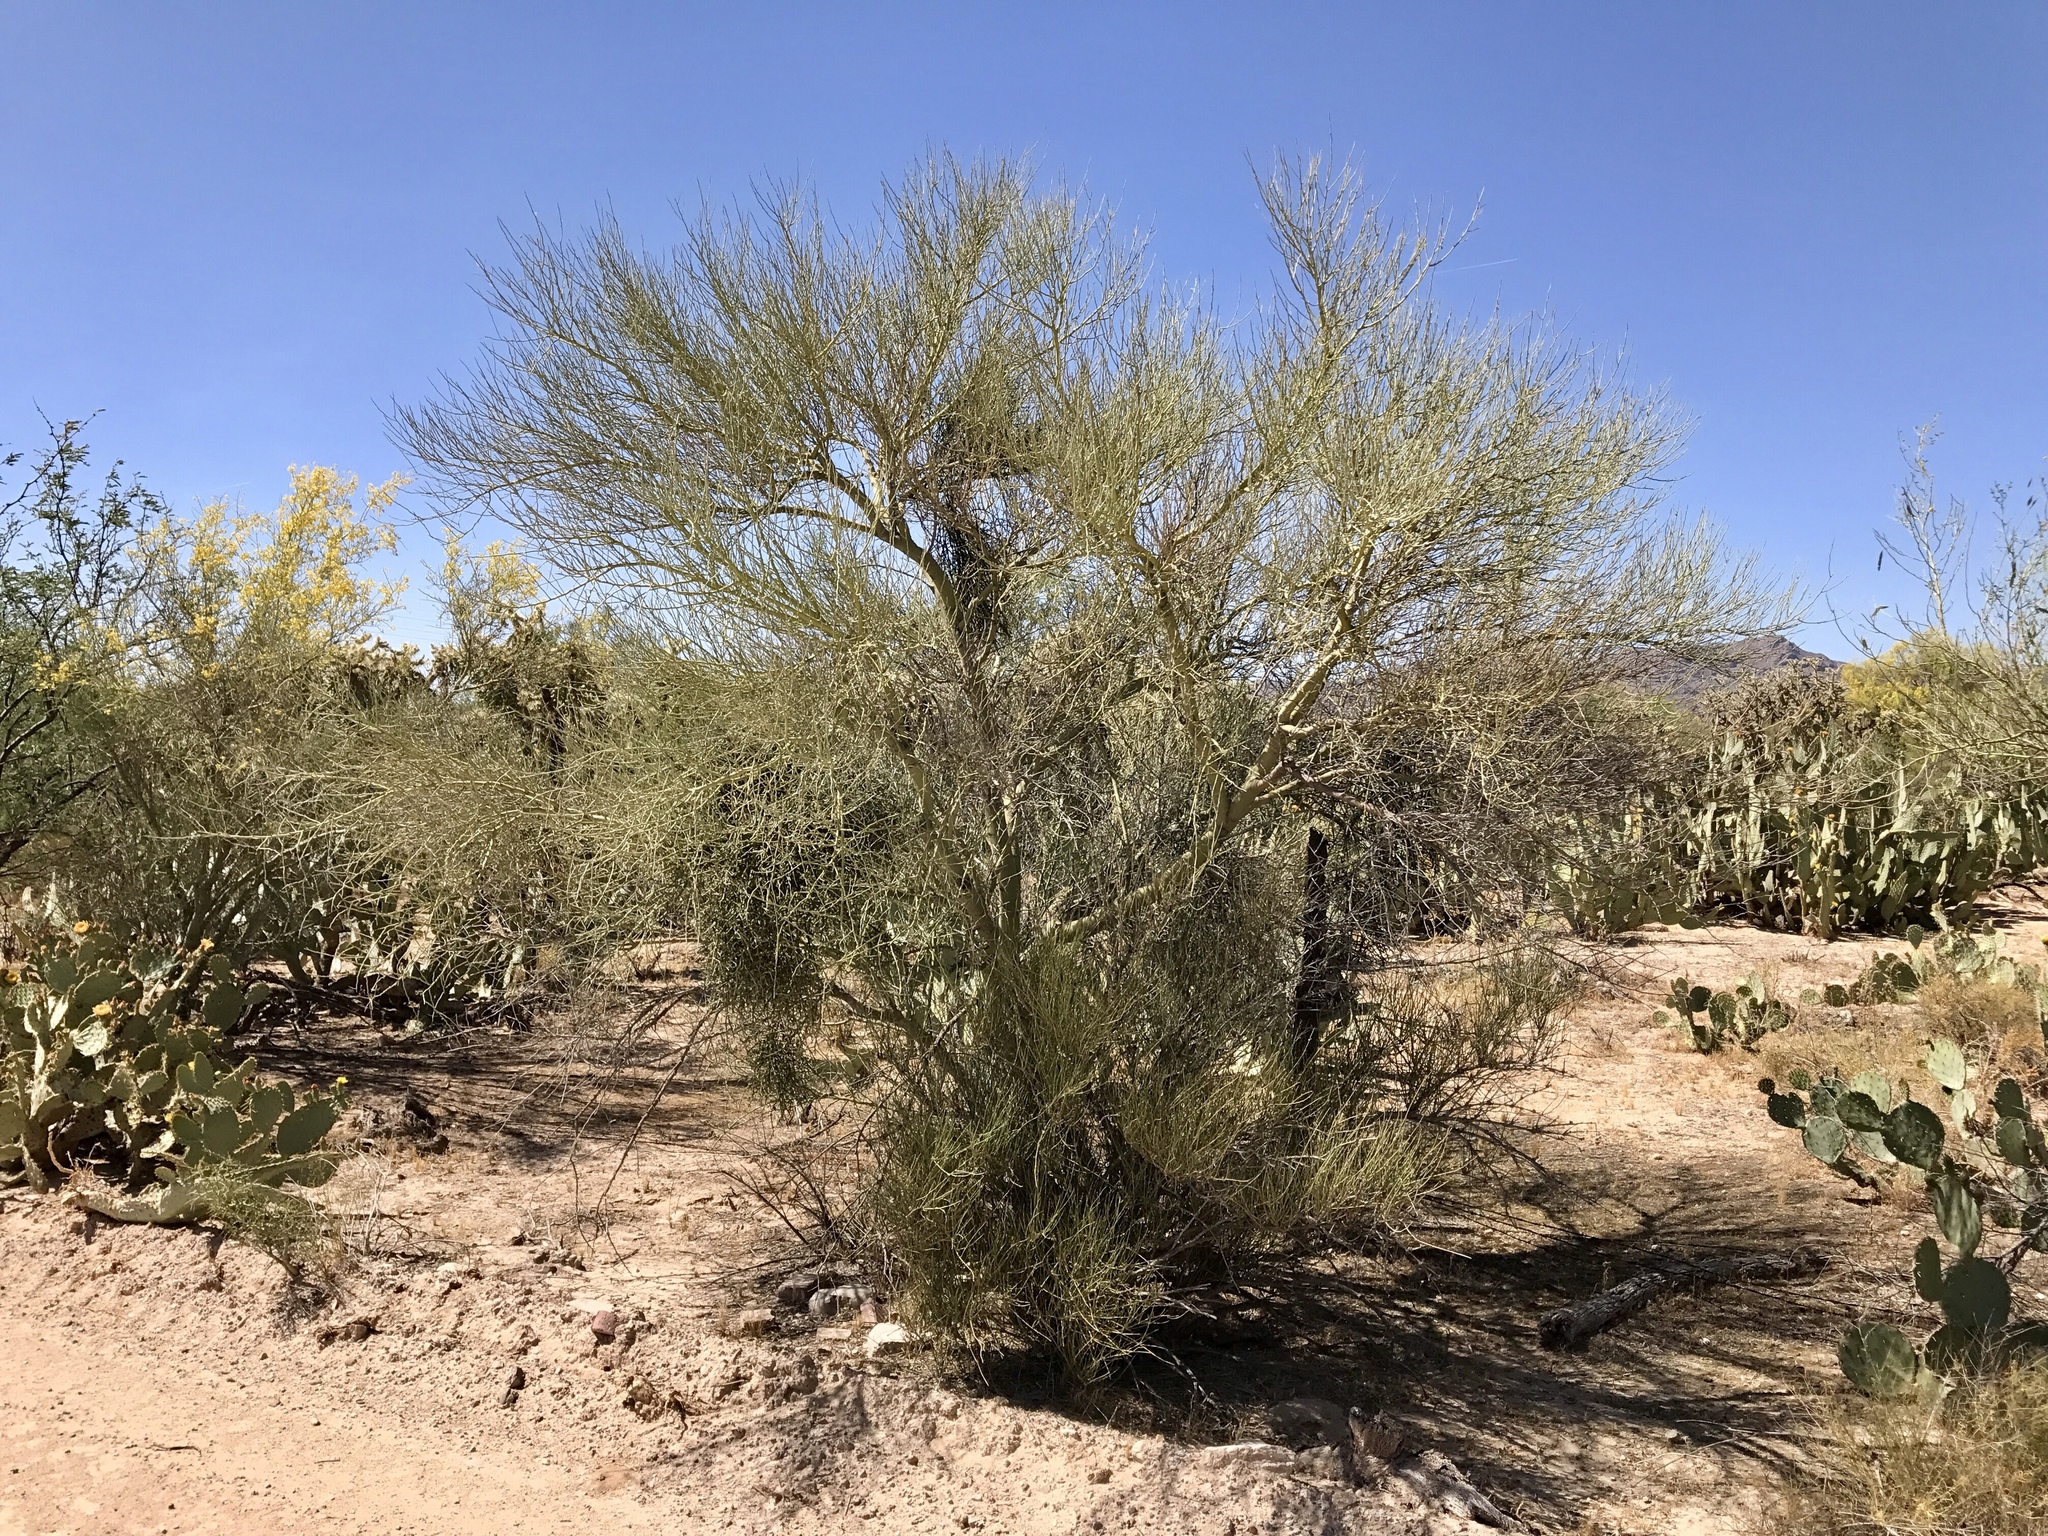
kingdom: Plantae
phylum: Tracheophyta
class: Magnoliopsida
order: Fabales
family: Fabaceae
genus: Parkinsonia
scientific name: Parkinsonia florida
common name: Blue paloverde
